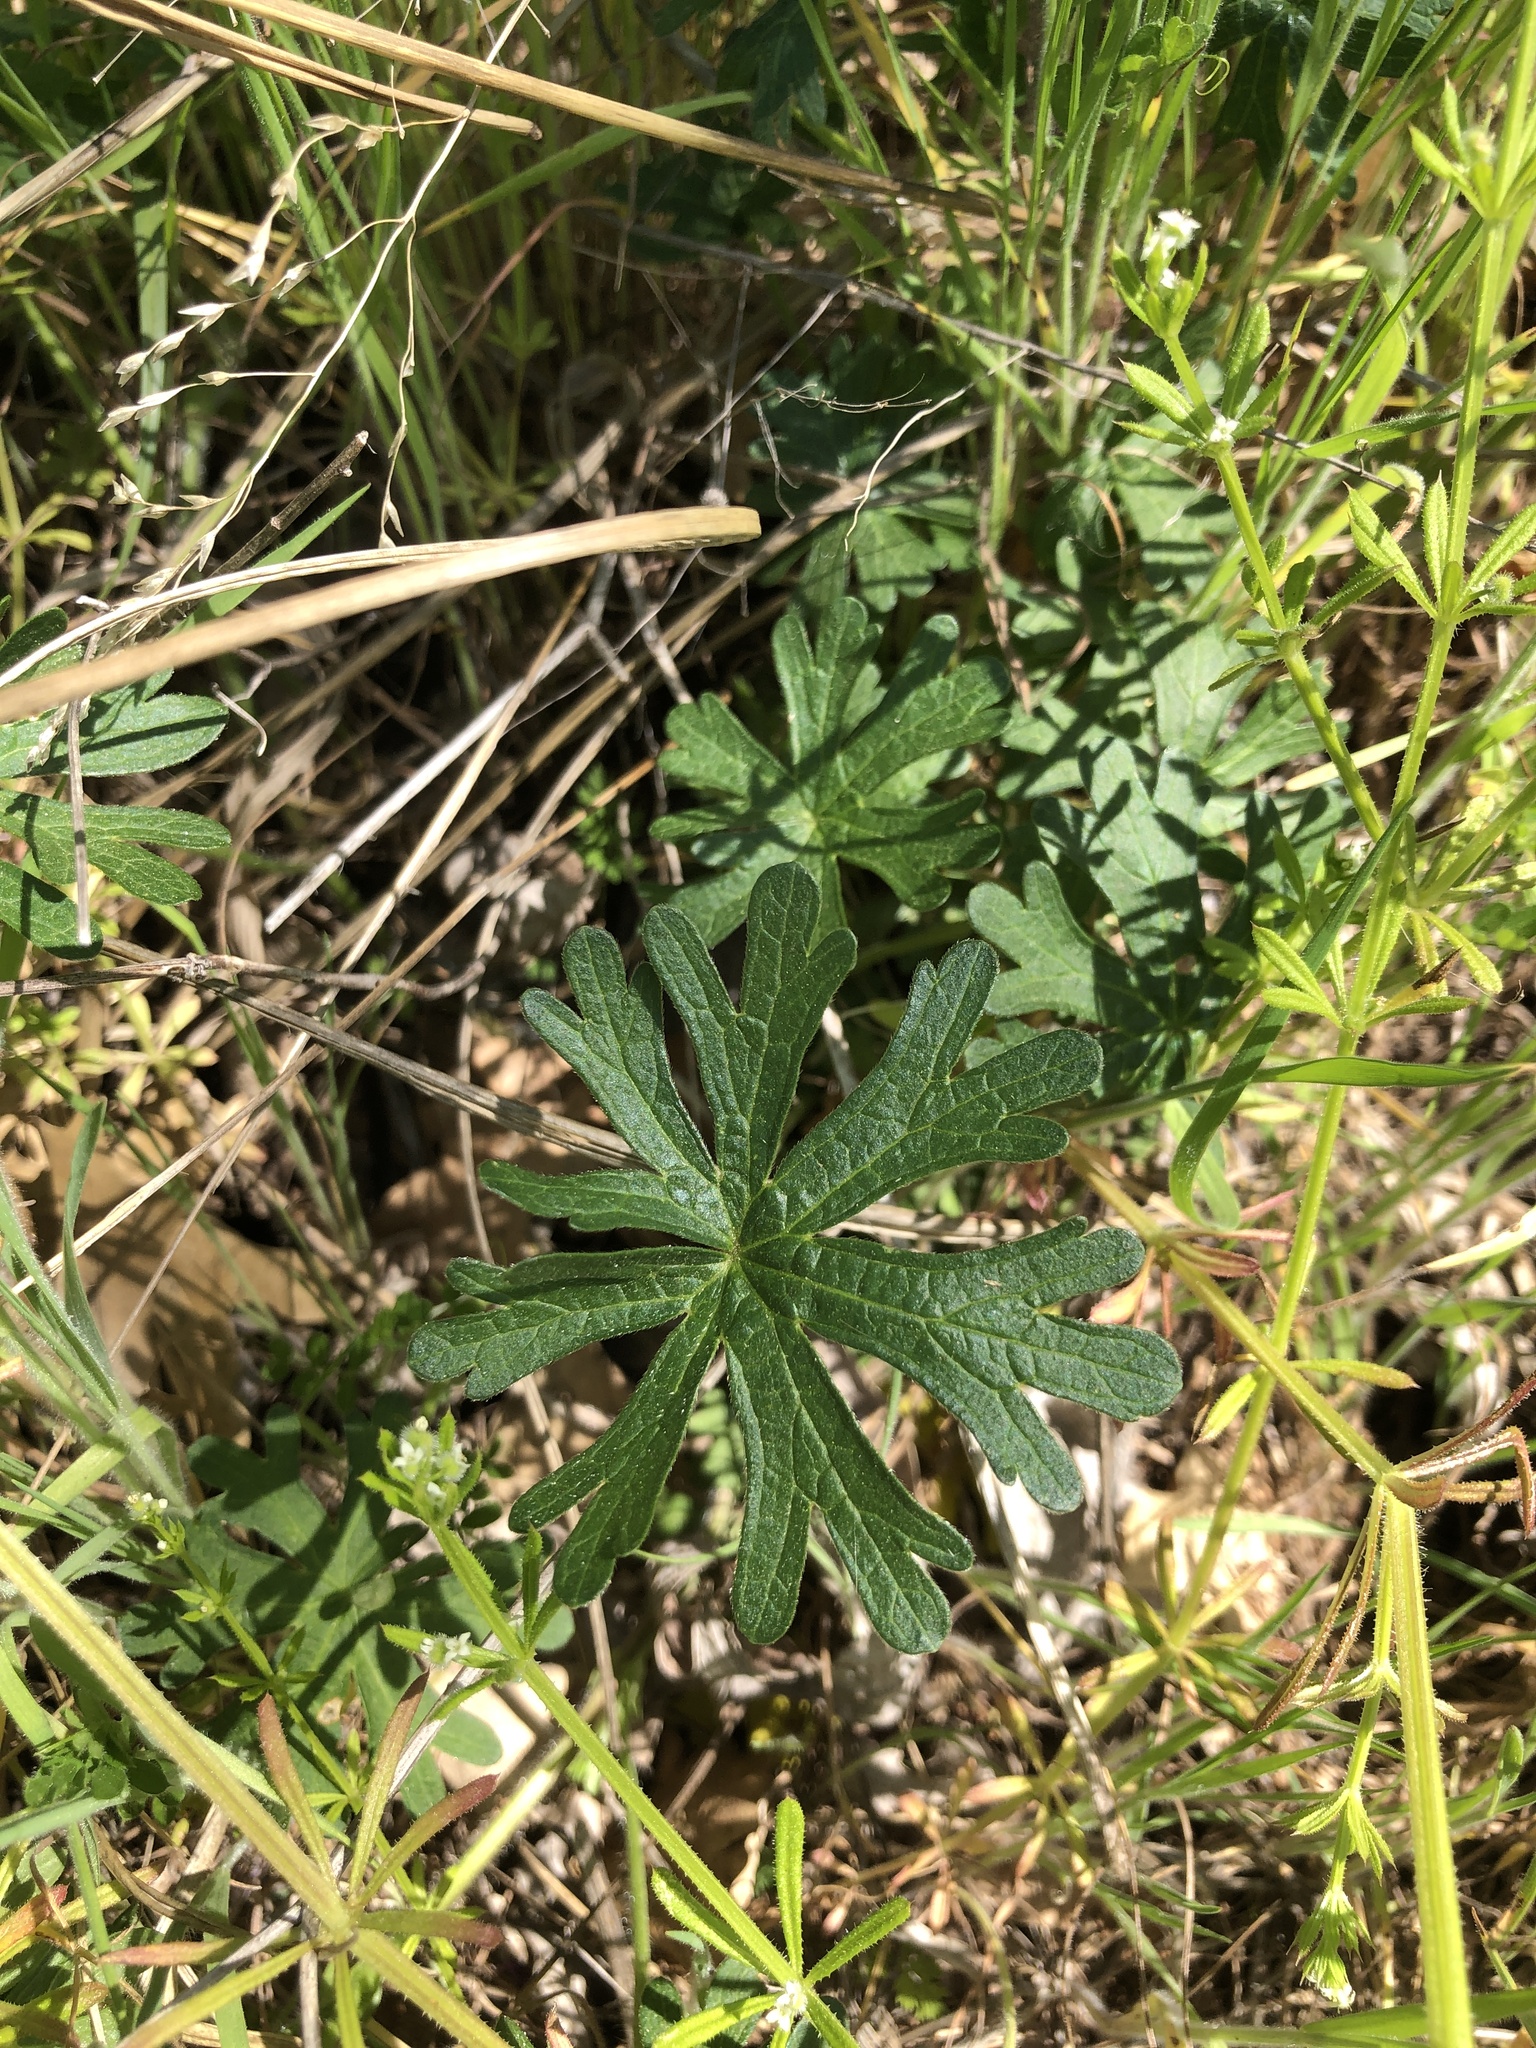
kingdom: Plantae
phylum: Tracheophyta
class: Magnoliopsida
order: Malvales
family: Malvaceae
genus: Callirhoe
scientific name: Callirhoe involucrata
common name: Purple poppy-mallow
